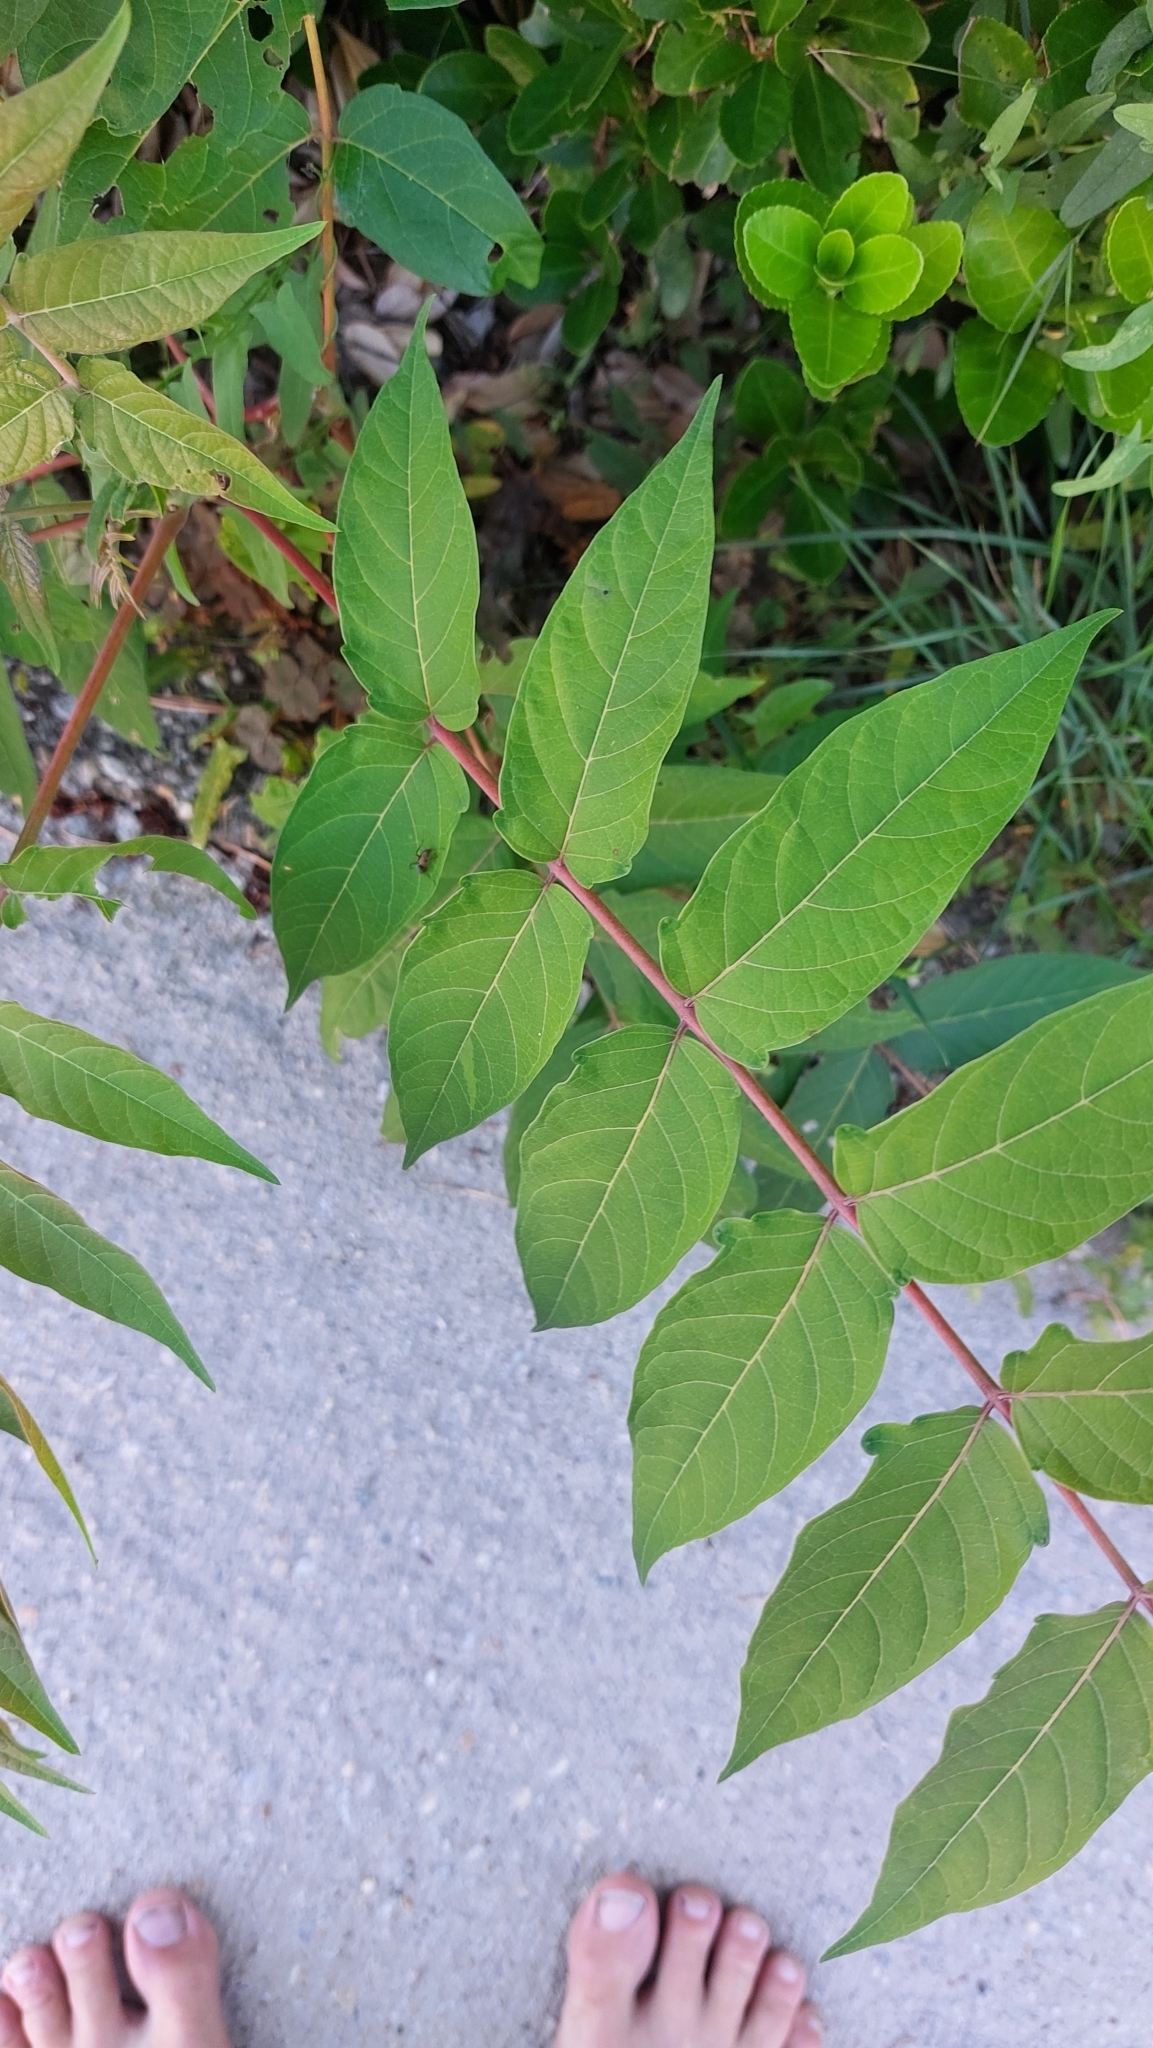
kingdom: Plantae
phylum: Tracheophyta
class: Magnoliopsida
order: Sapindales
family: Simaroubaceae
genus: Ailanthus
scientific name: Ailanthus altissima
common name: Tree-of-heaven
